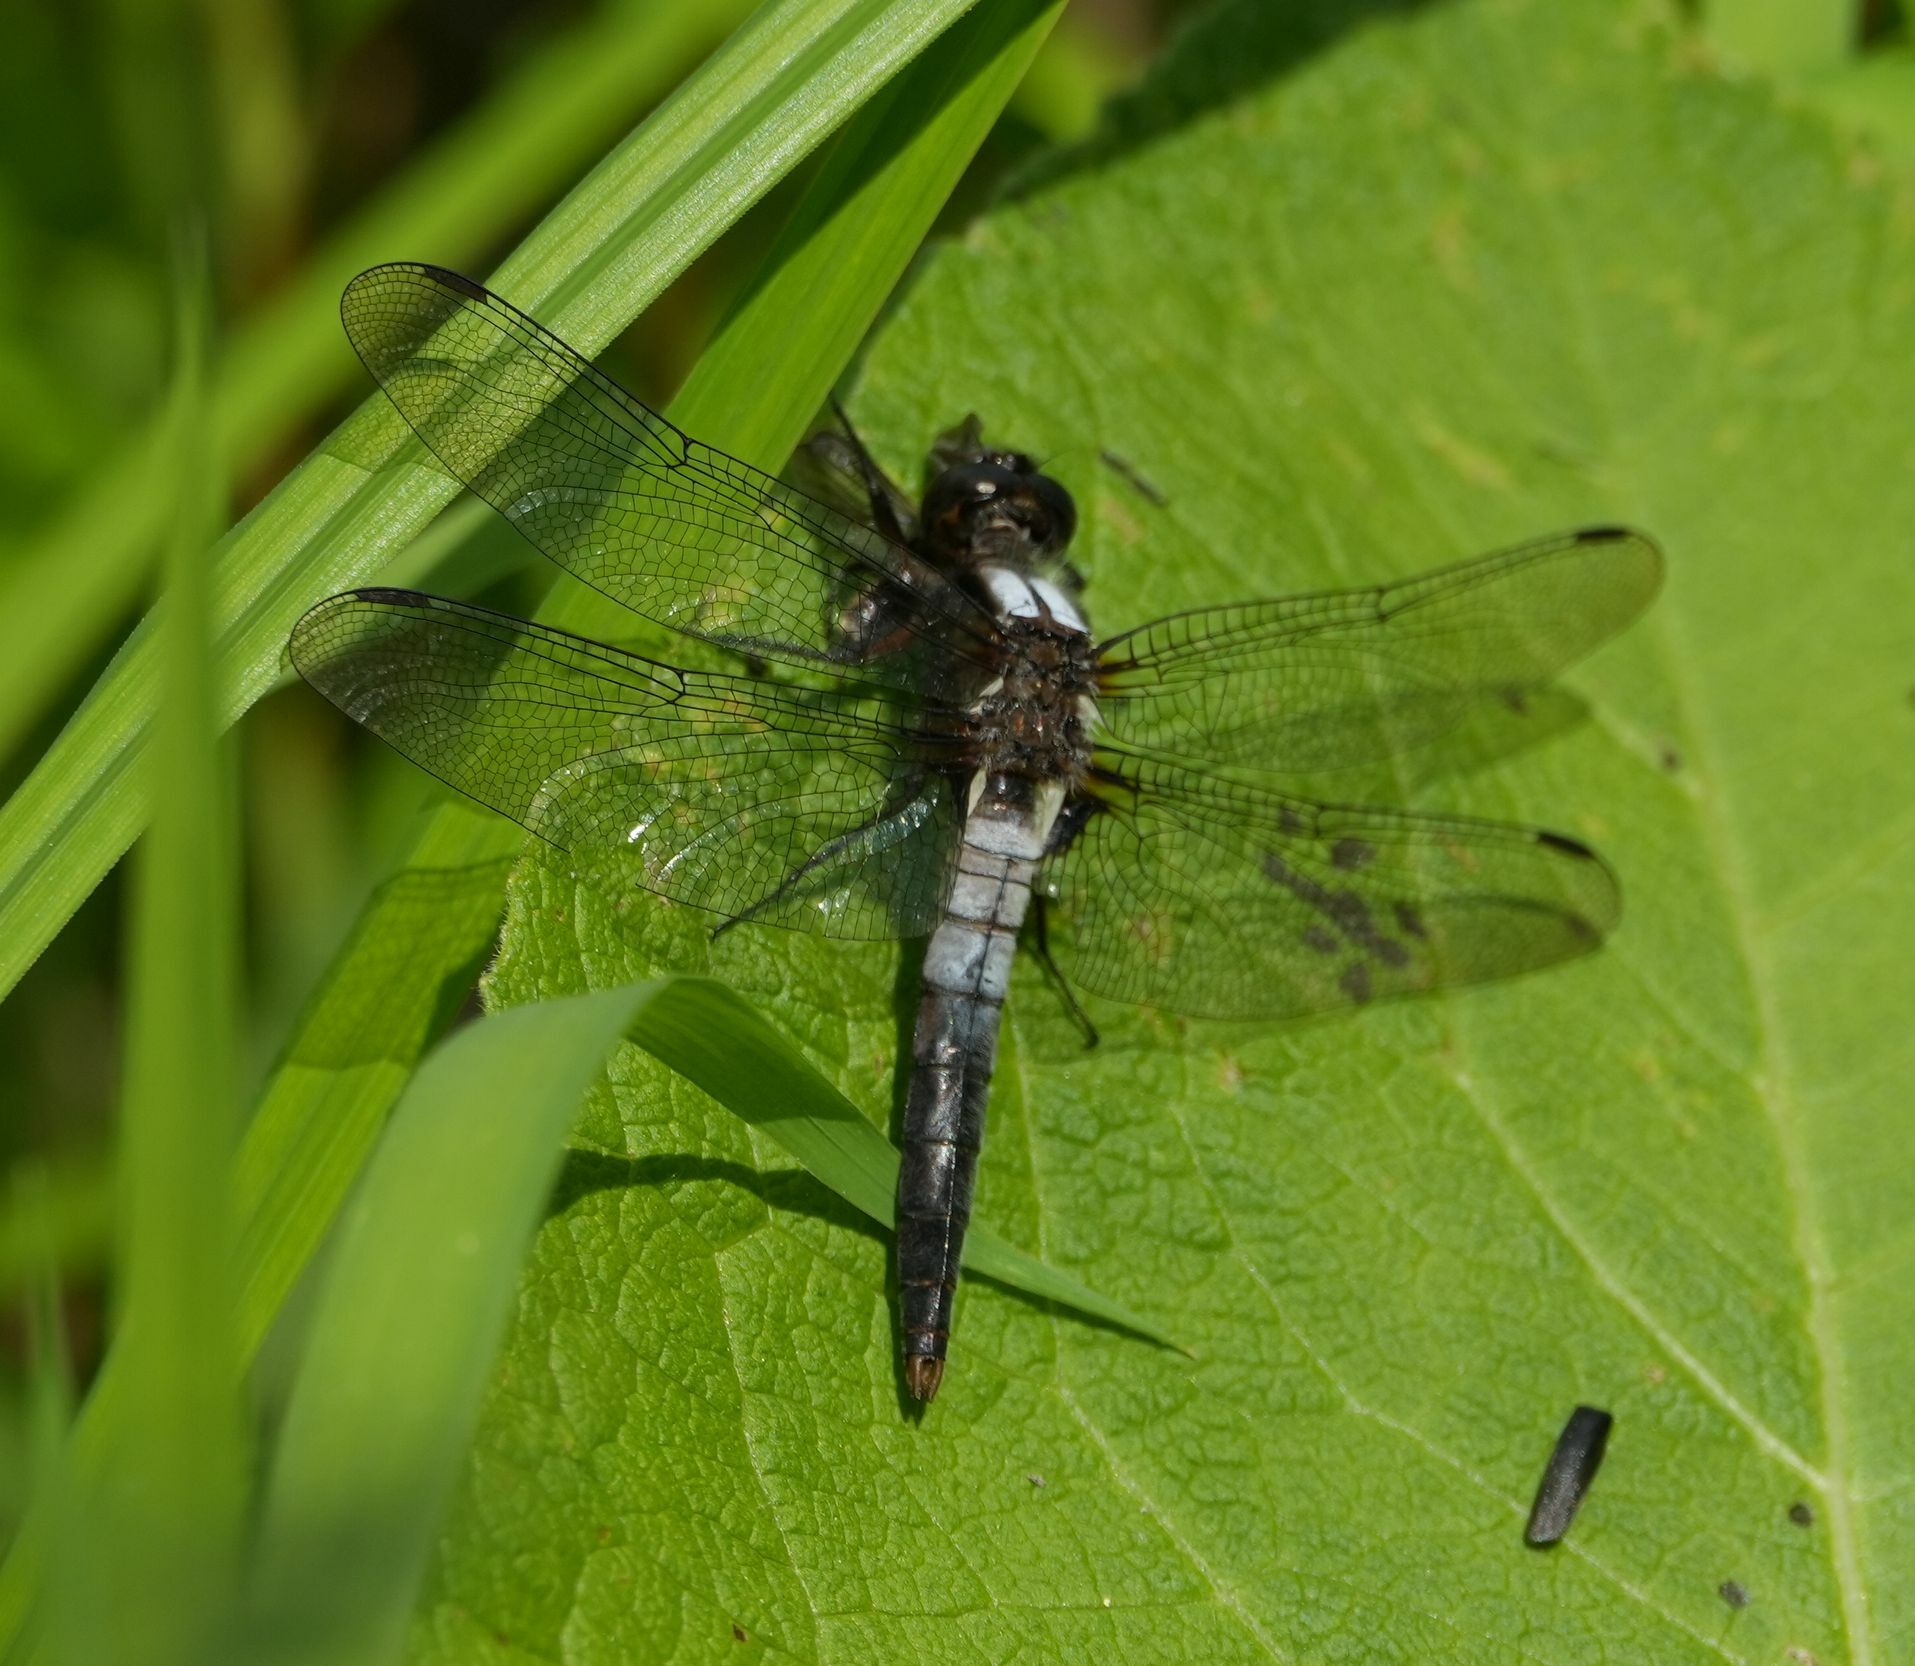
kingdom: Animalia
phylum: Arthropoda
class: Insecta
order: Odonata
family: Libellulidae
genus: Ladona
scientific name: Ladona julia
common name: Chalk-fronted corporal
